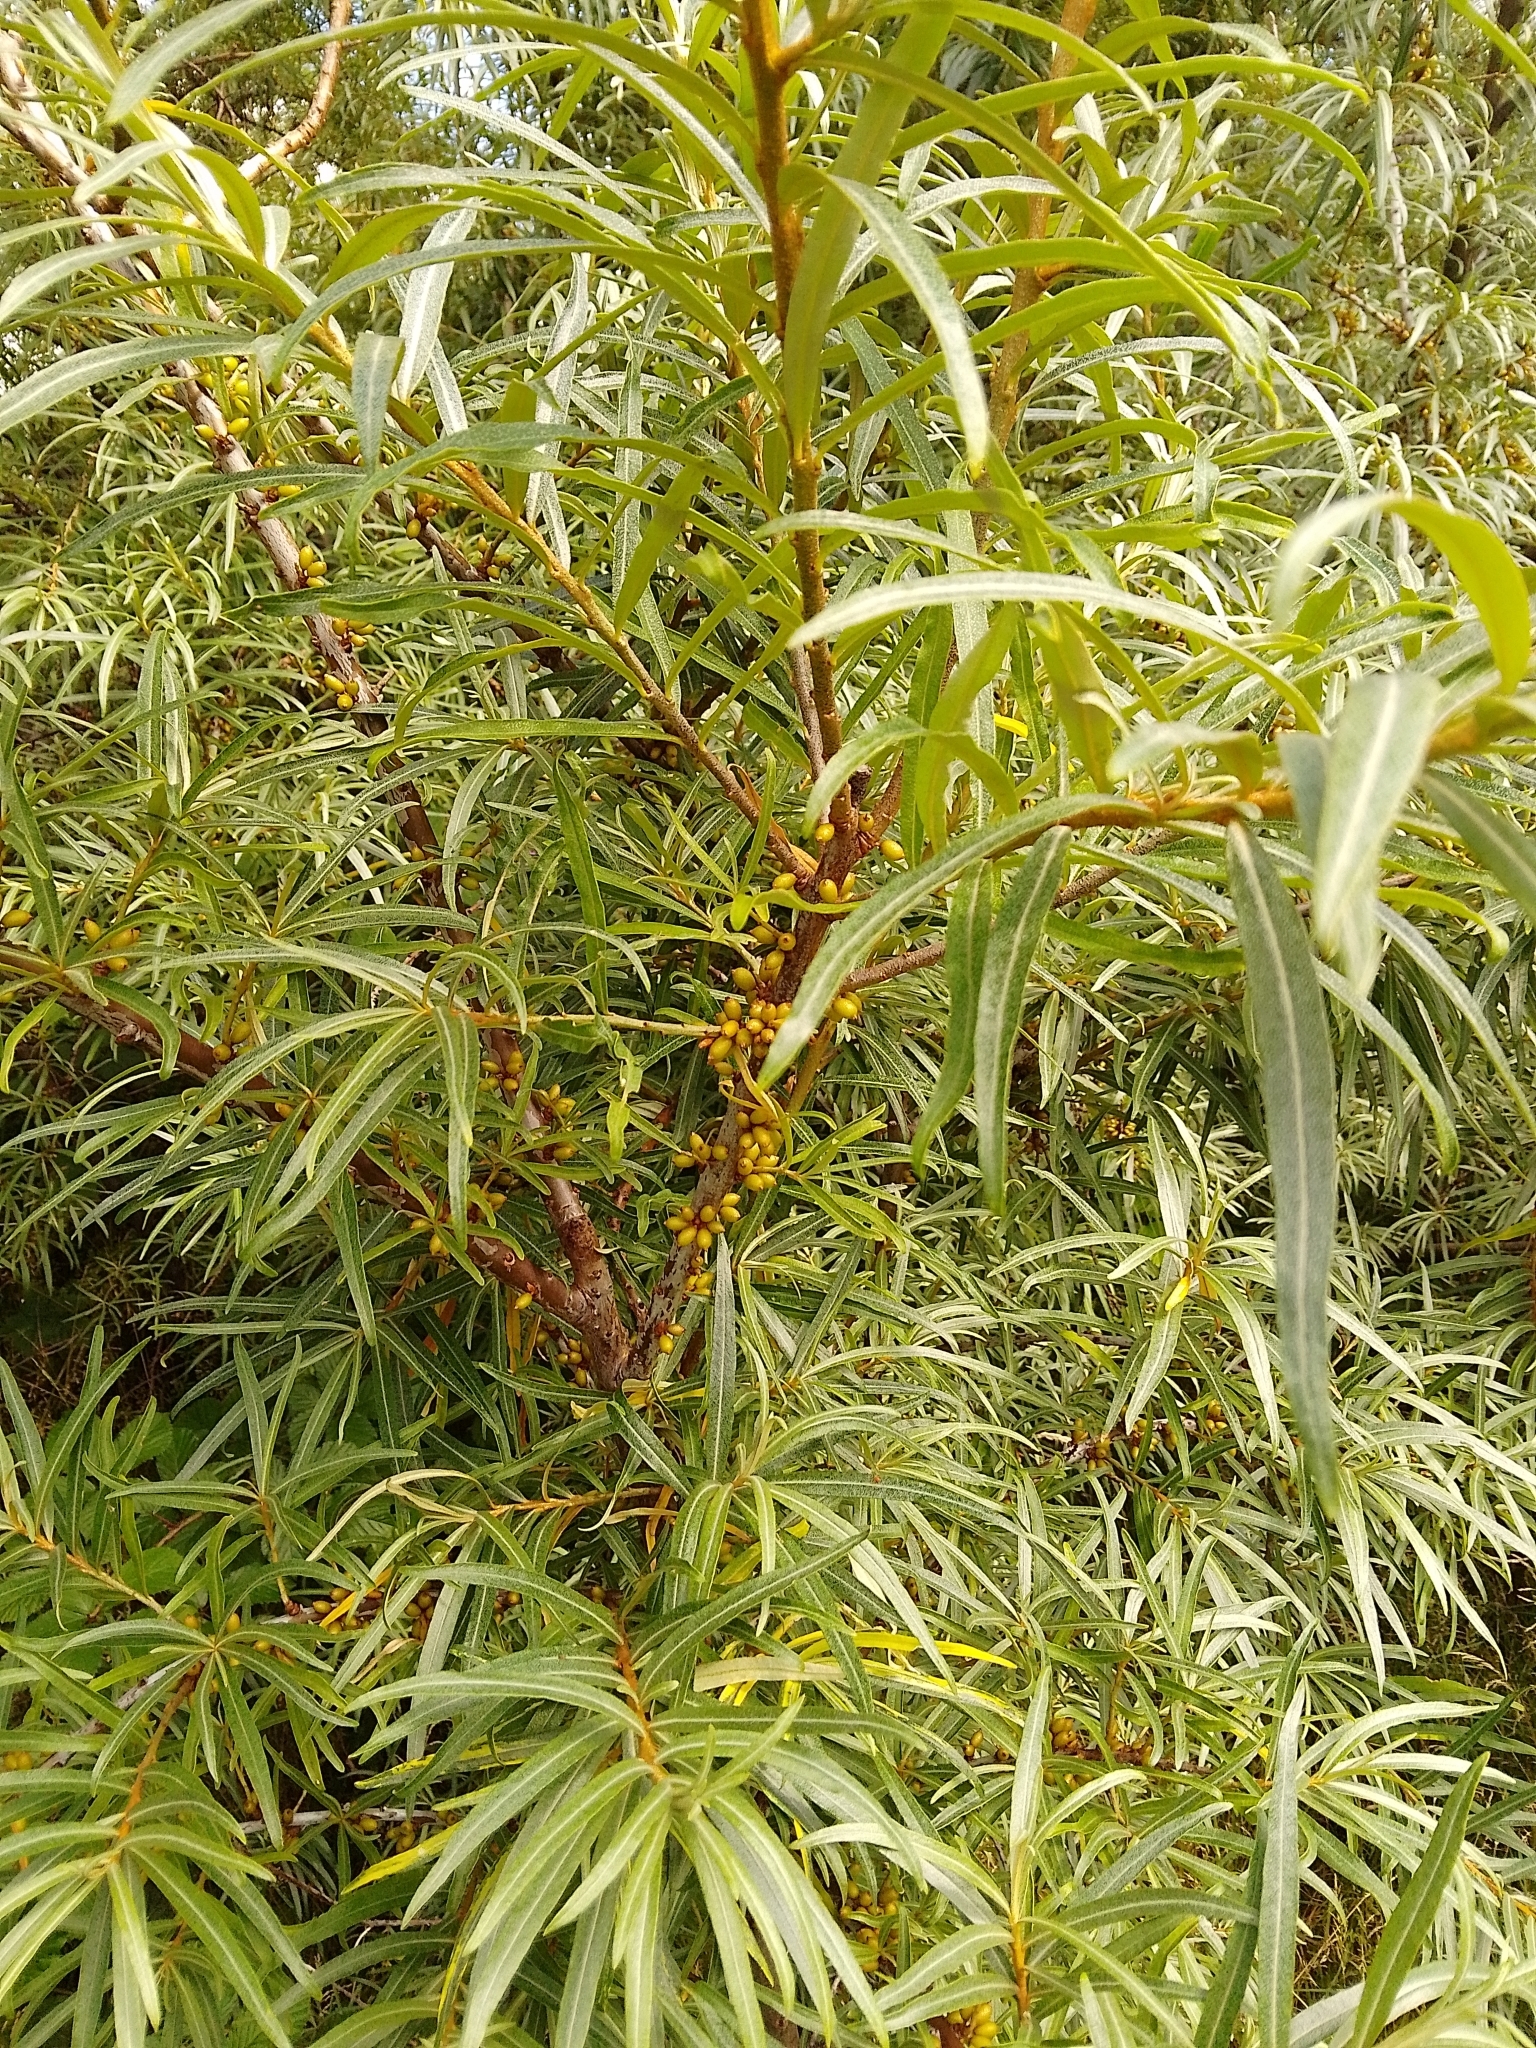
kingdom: Plantae
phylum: Tracheophyta
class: Magnoliopsida
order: Rosales
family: Elaeagnaceae
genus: Hippophae
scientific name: Hippophae rhamnoides
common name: Sea-buckthorn
